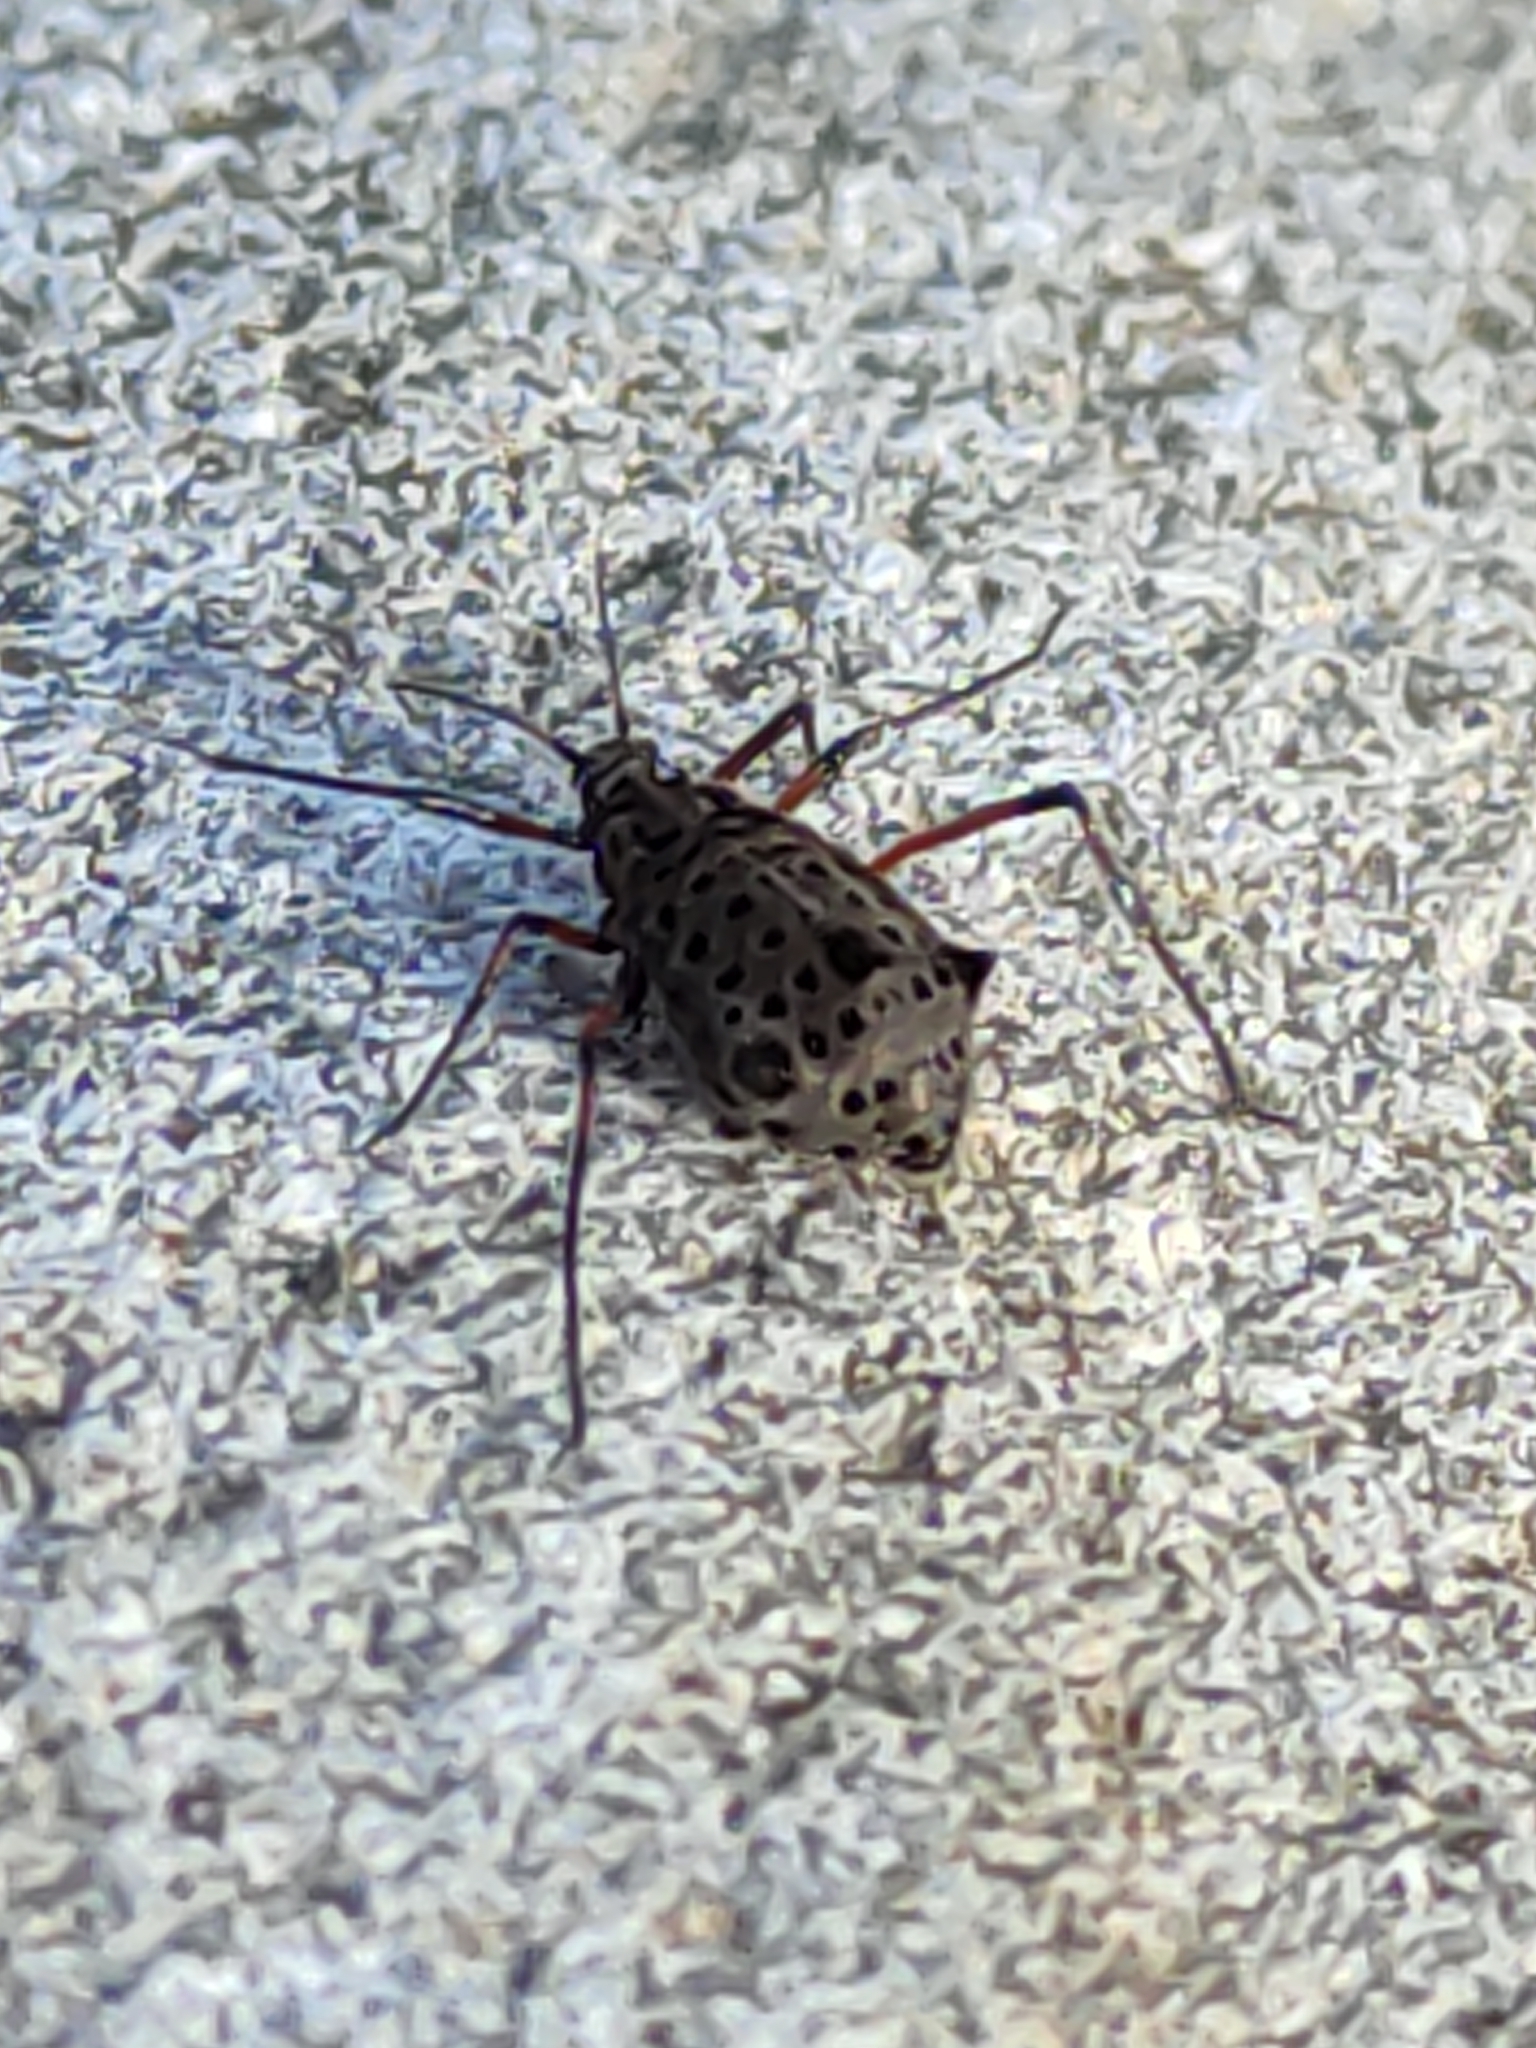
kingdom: Animalia
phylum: Arthropoda
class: Insecta
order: Hemiptera
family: Aphididae
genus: Tuberolachnus
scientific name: Tuberolachnus salignus
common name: Giant willow aphid
